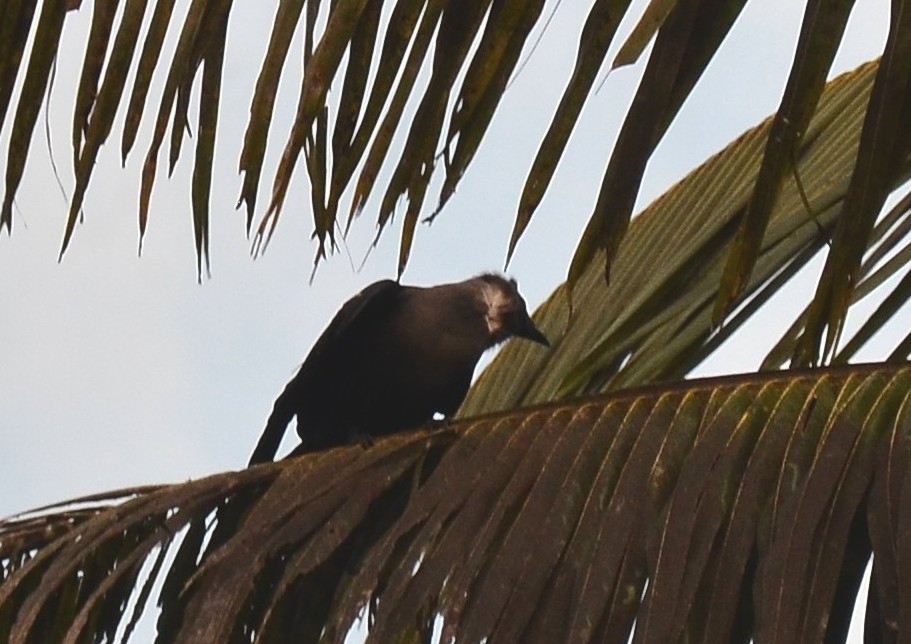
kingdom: Animalia
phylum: Chordata
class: Aves
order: Passeriformes
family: Corvidae
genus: Corvus
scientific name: Corvus splendens
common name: House crow
